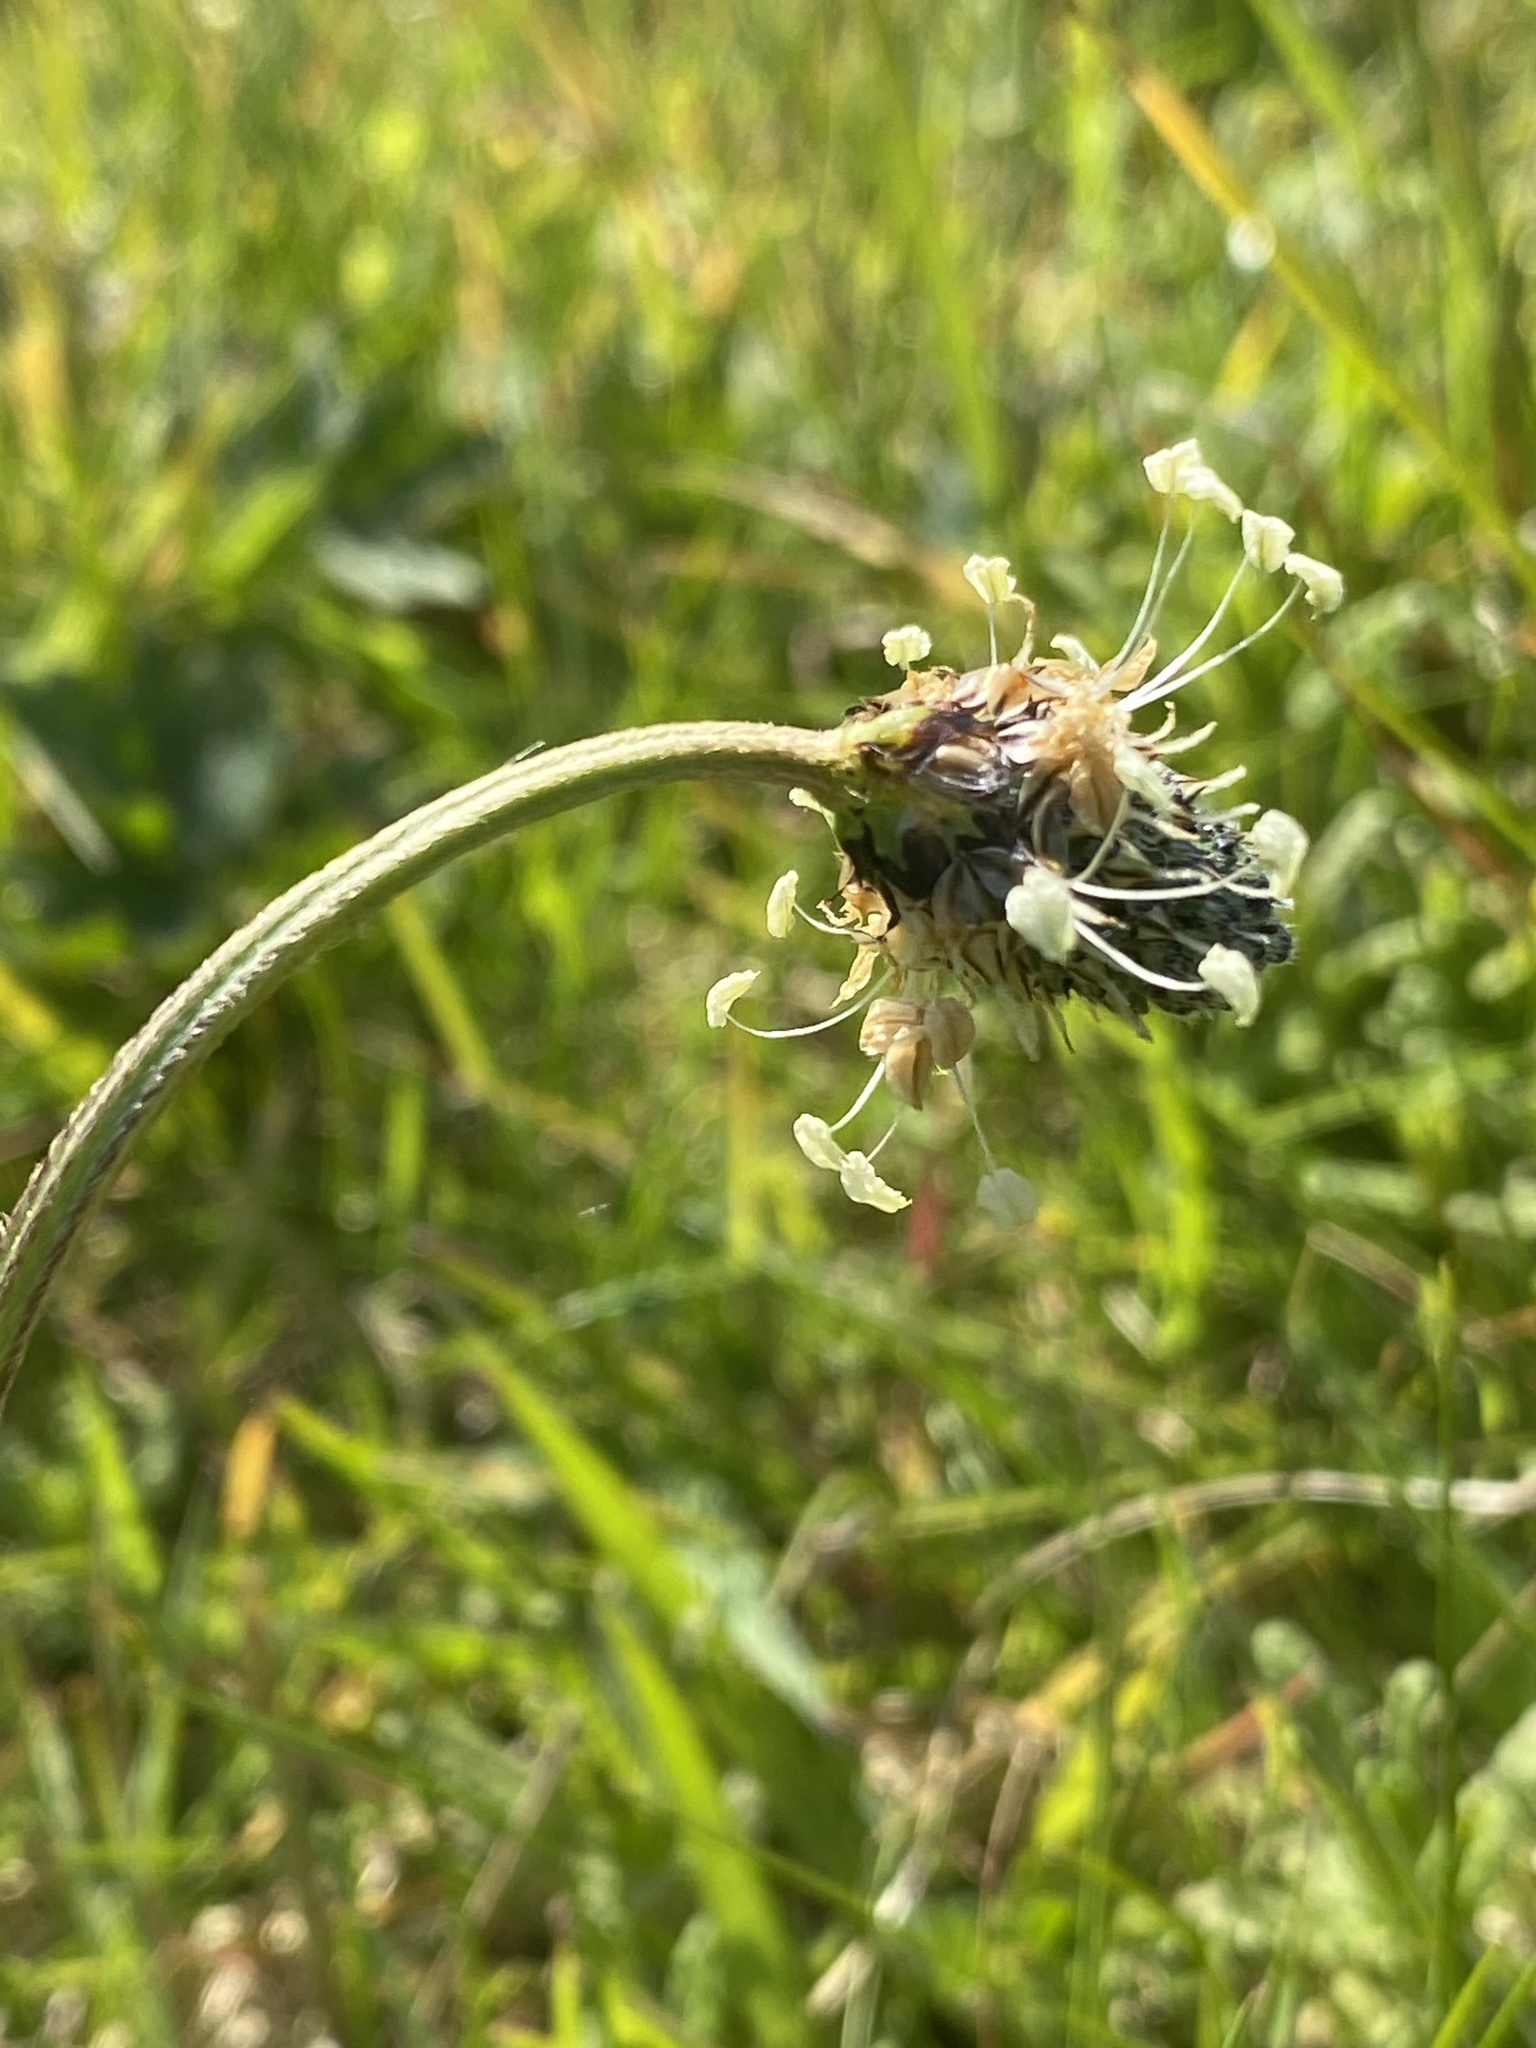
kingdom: Plantae
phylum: Tracheophyta
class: Magnoliopsida
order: Lamiales
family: Plantaginaceae
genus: Plantago
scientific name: Plantago lanceolata
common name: Ribwort plantain
